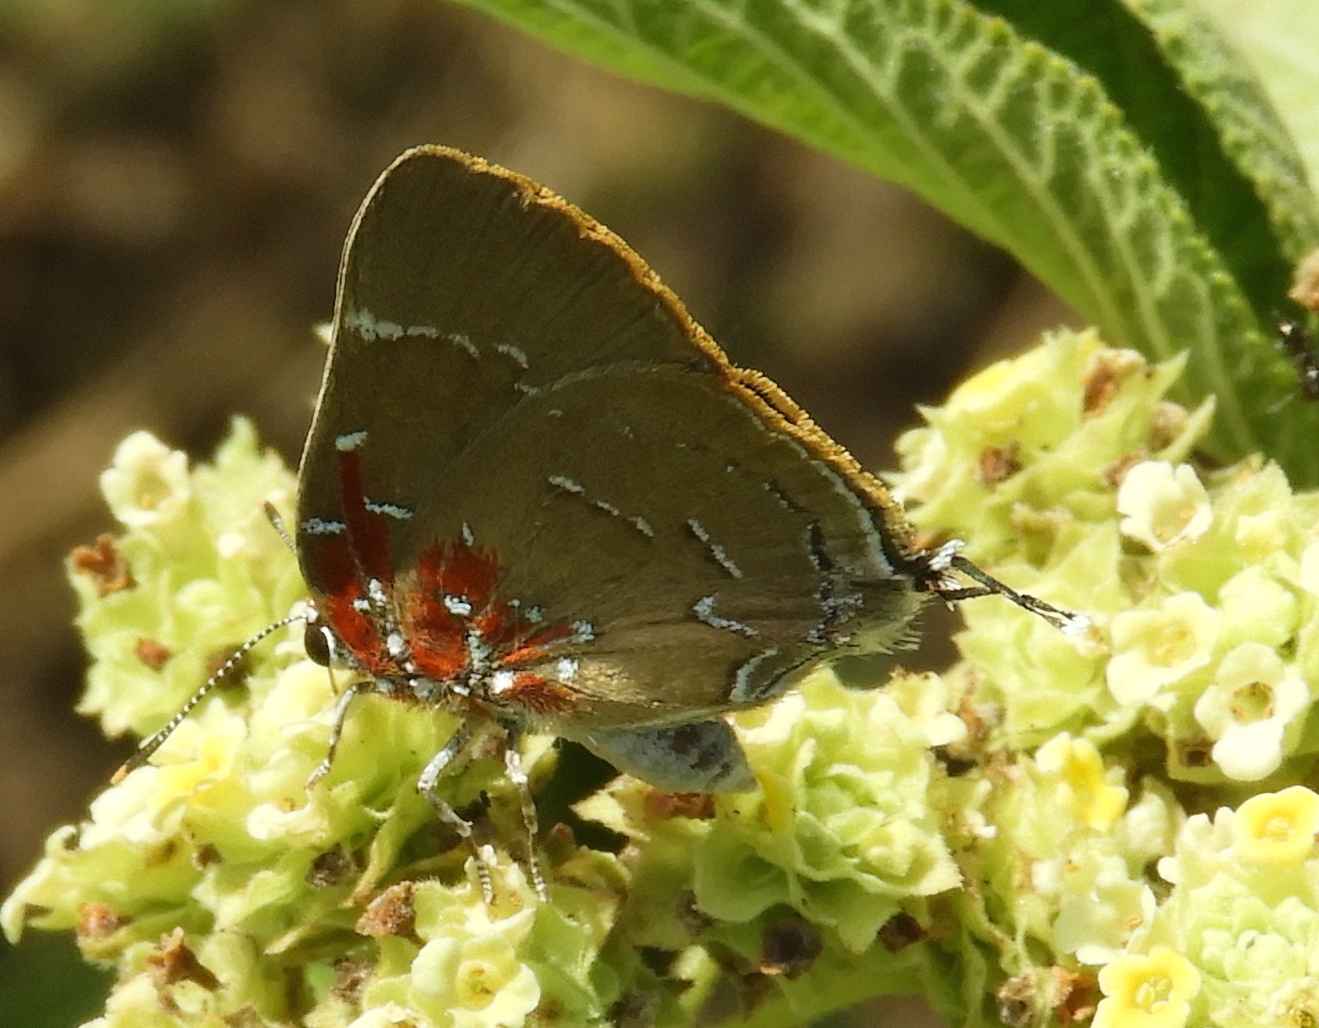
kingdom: Animalia
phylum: Arthropoda
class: Insecta
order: Lepidoptera
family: Lycaenidae
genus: Atlides
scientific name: Atlides Brangas neora
